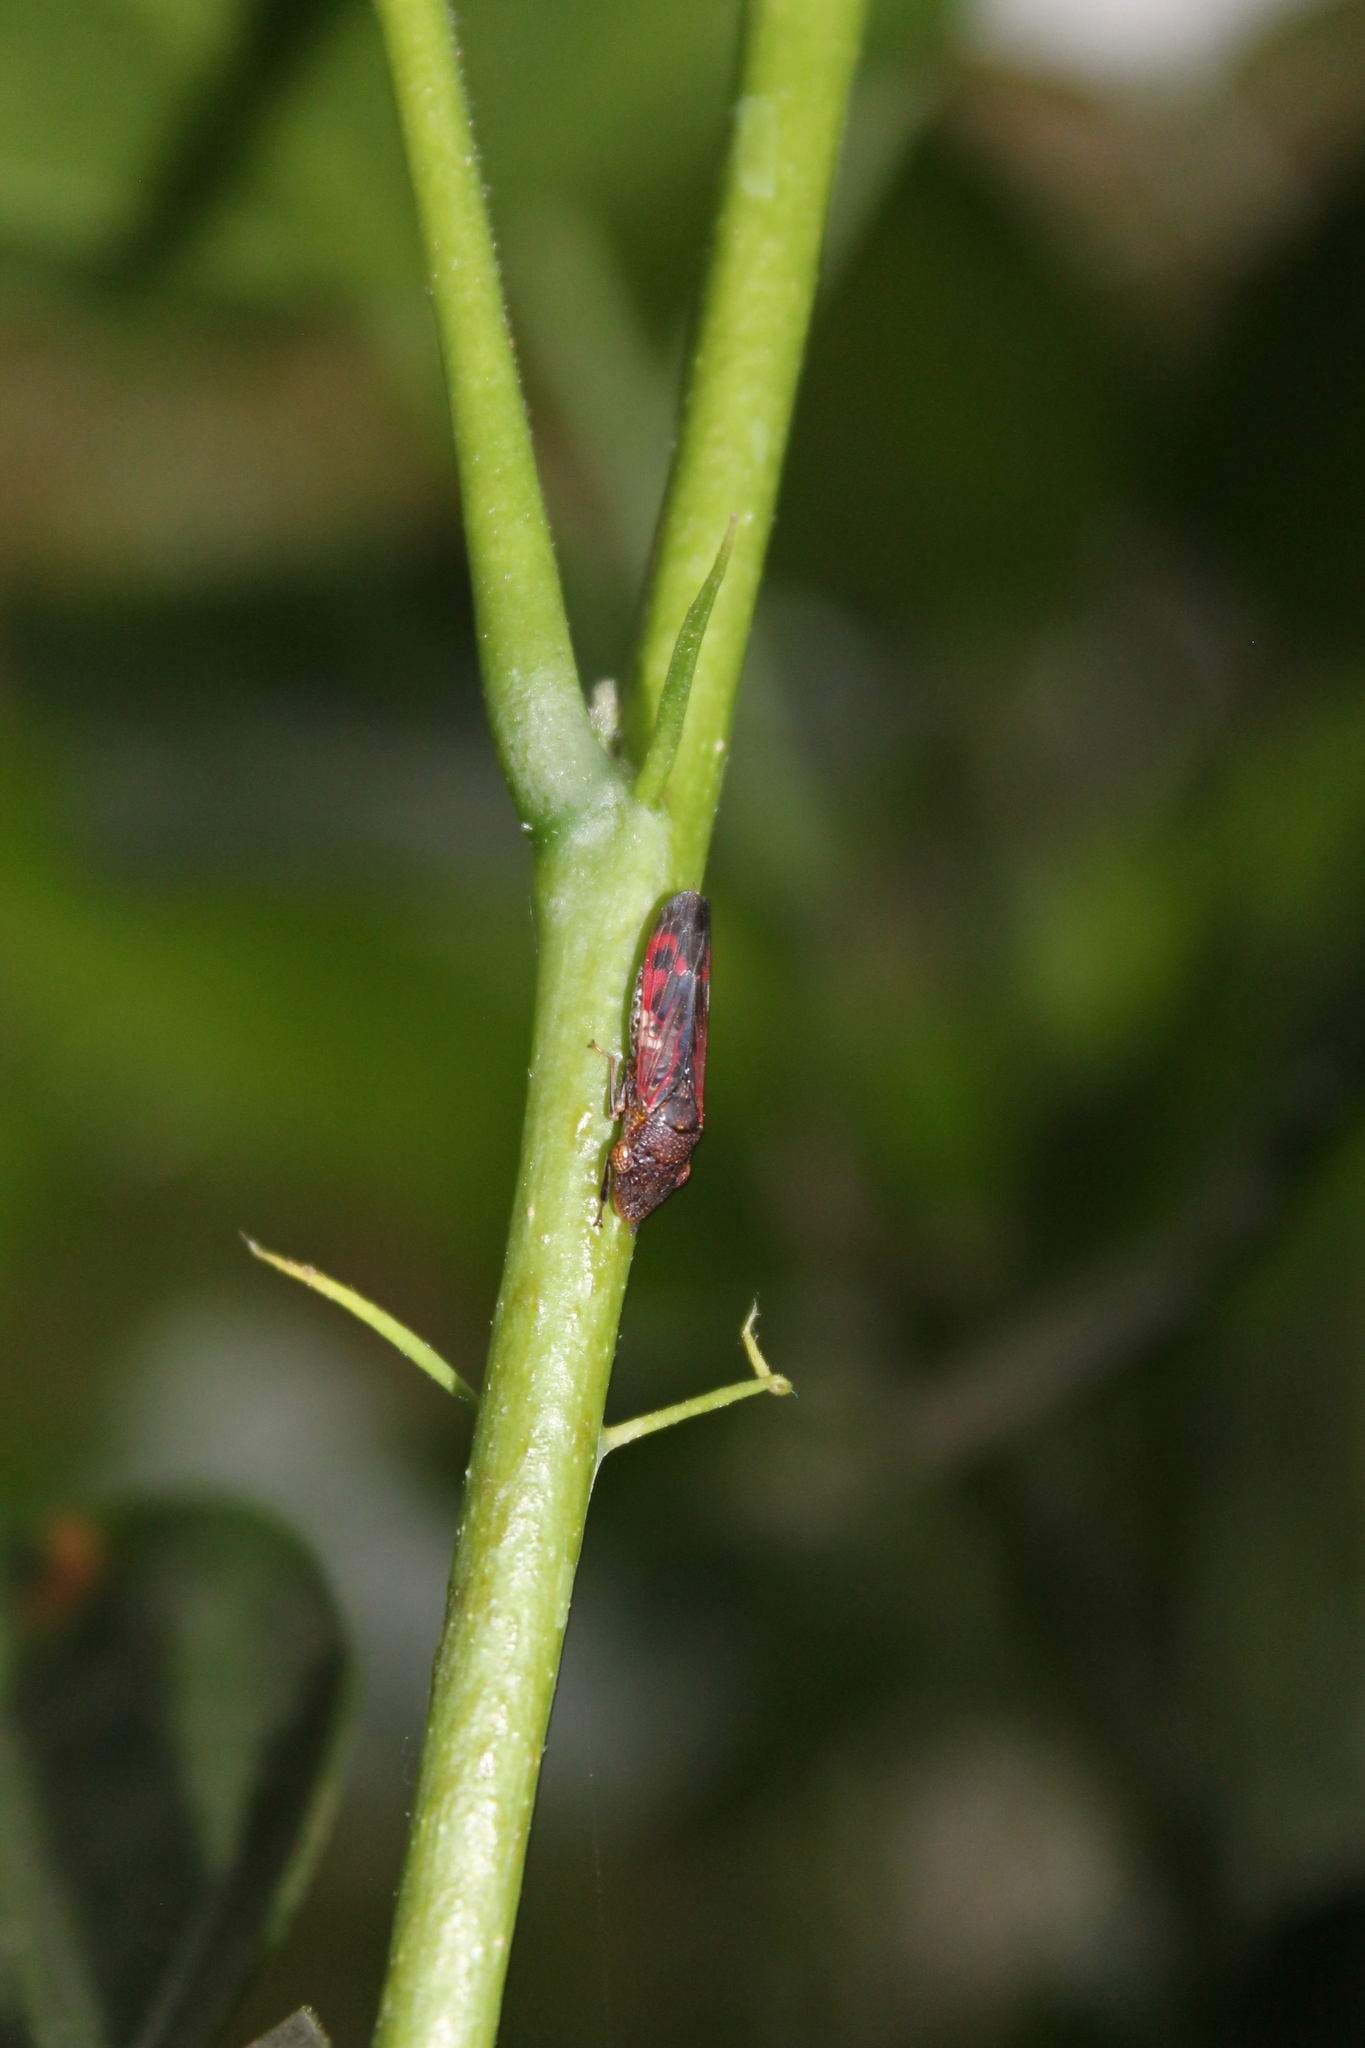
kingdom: Animalia
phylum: Arthropoda
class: Insecta
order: Hemiptera
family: Cicadellidae
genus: Homalodisca
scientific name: Homalodisca vitripennis
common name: Glassy-winged sharpshooter
